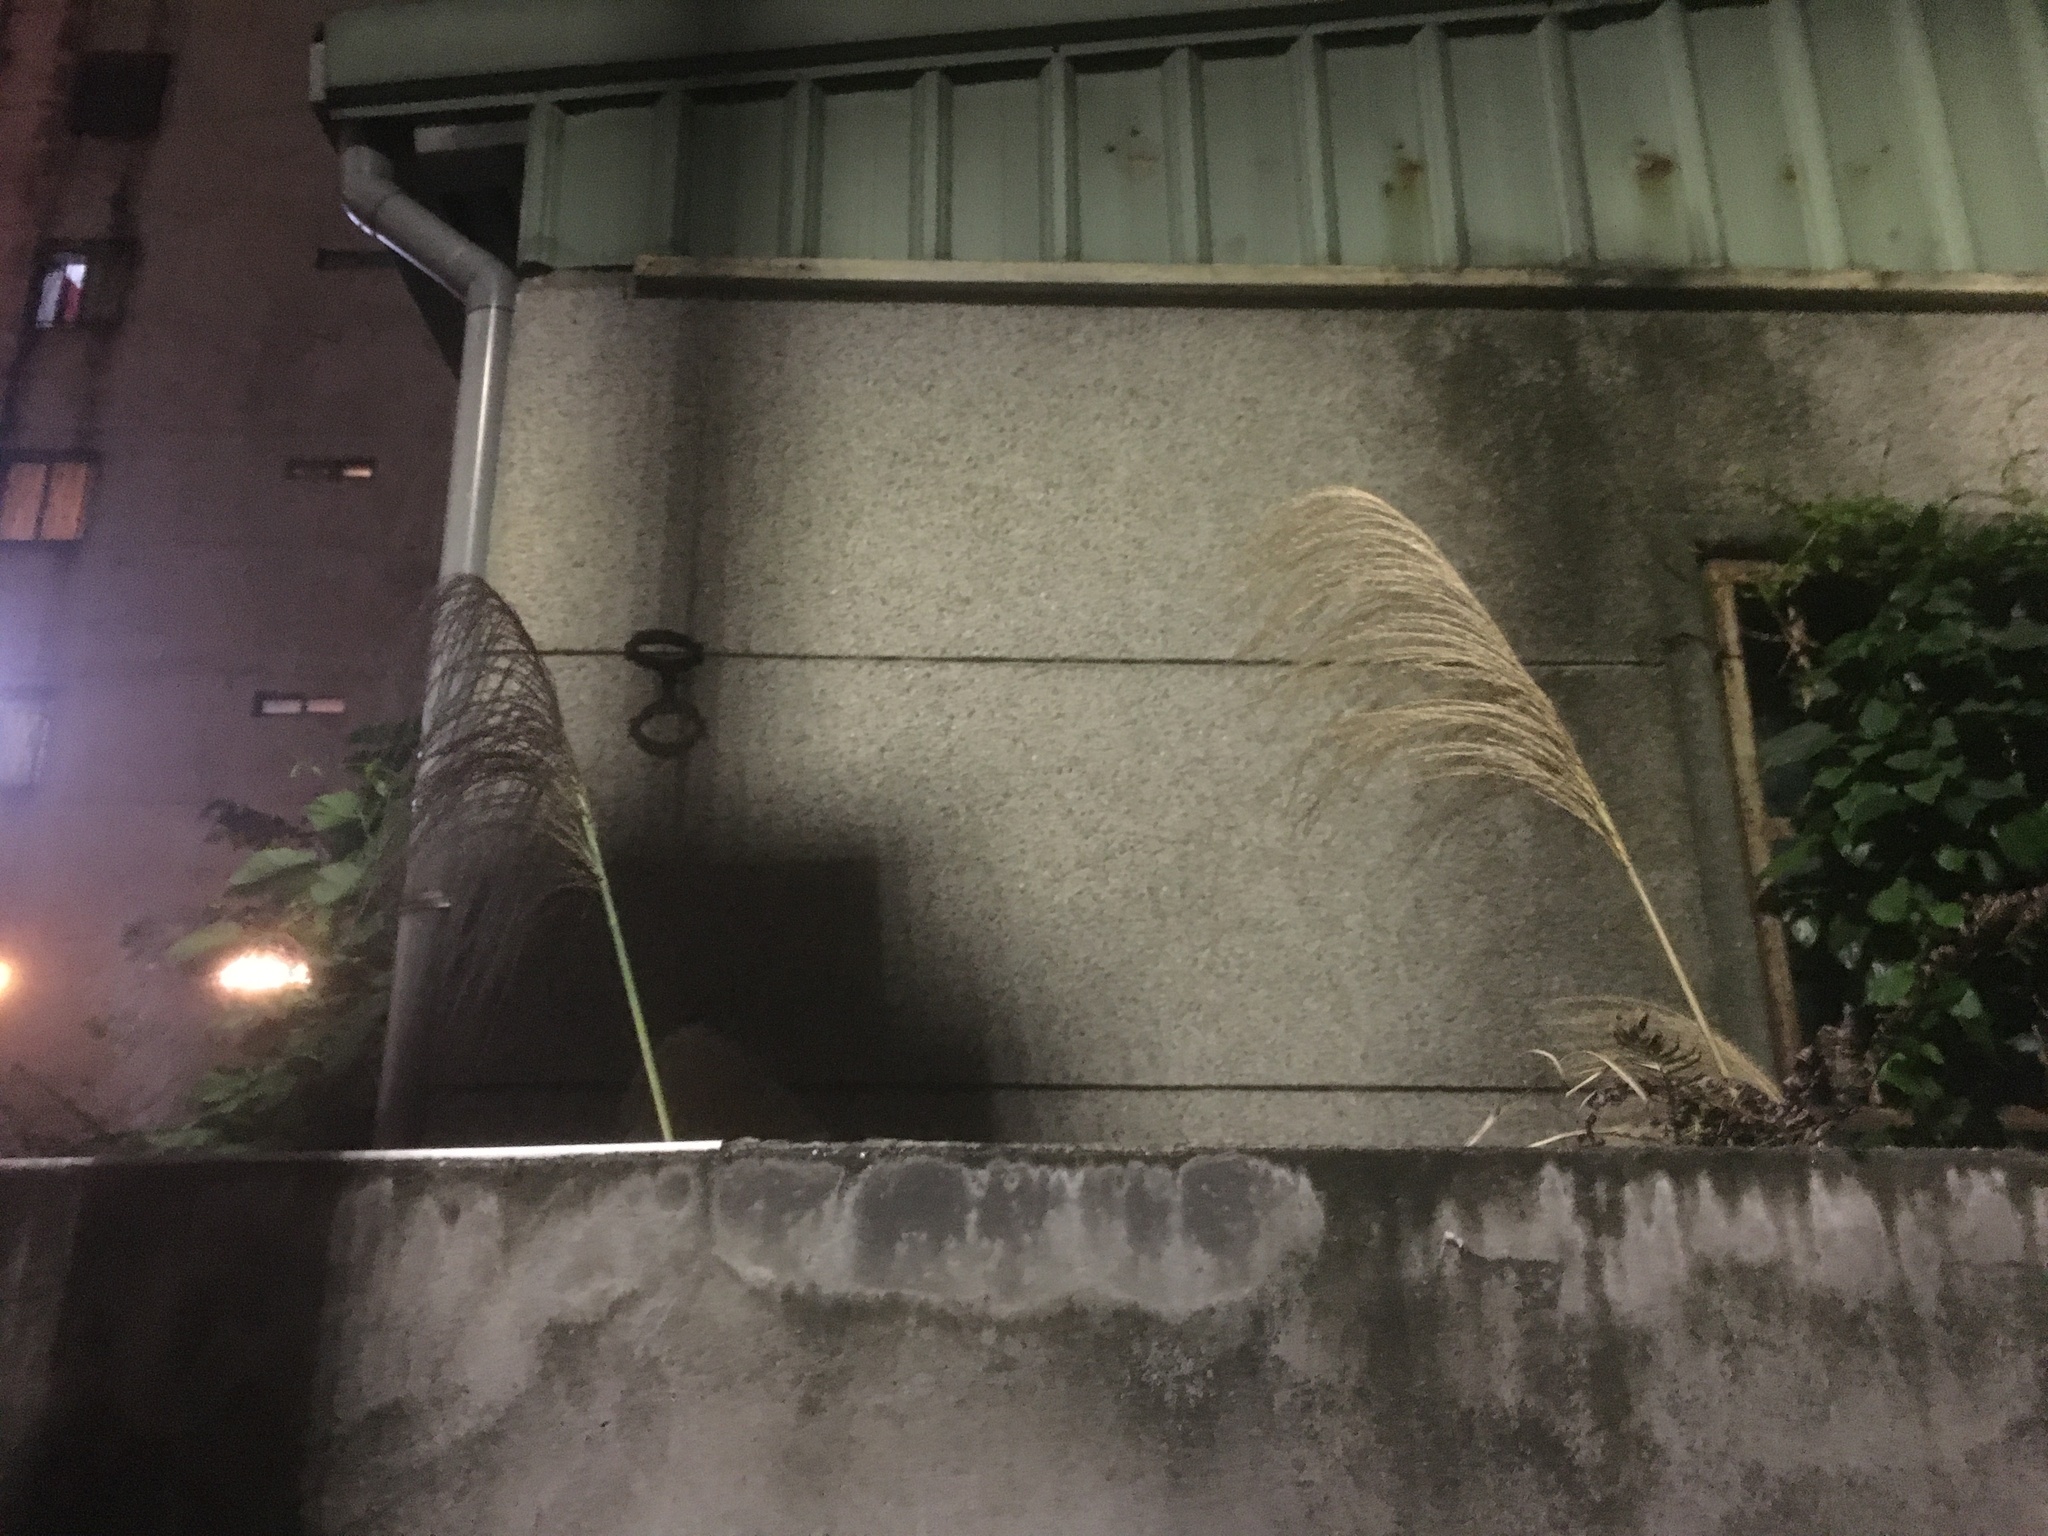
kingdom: Plantae
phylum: Tracheophyta
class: Liliopsida
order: Poales
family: Poaceae
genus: Miscanthus
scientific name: Miscanthus sinensis
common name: Chinese silvergrass
